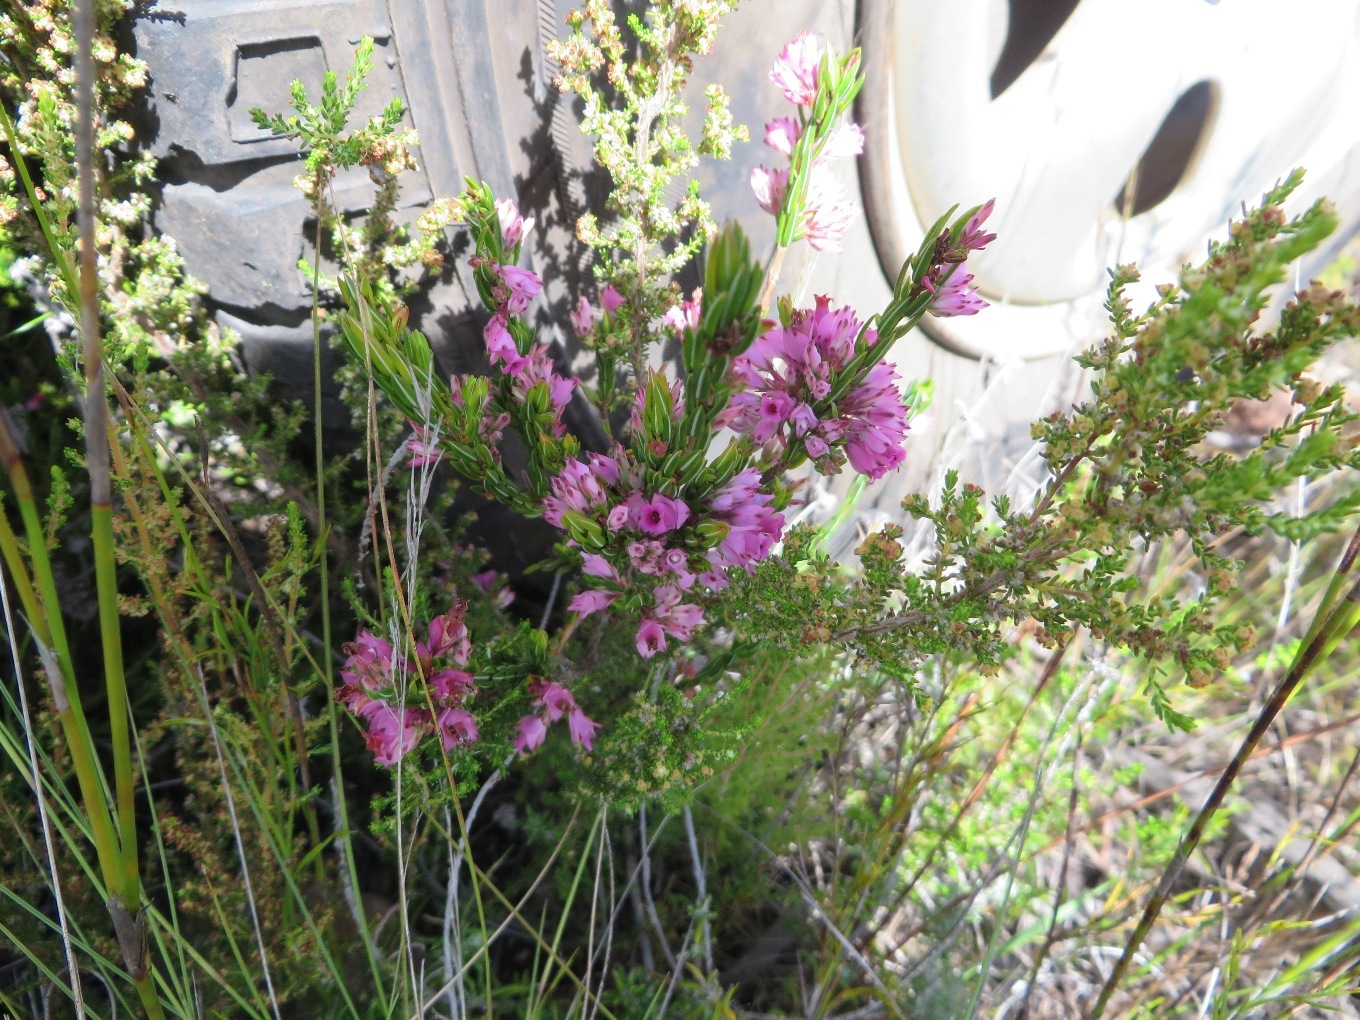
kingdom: Plantae
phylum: Tracheophyta
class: Magnoliopsida
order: Ericales
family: Ericaceae
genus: Erica
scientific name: Erica corifolia
